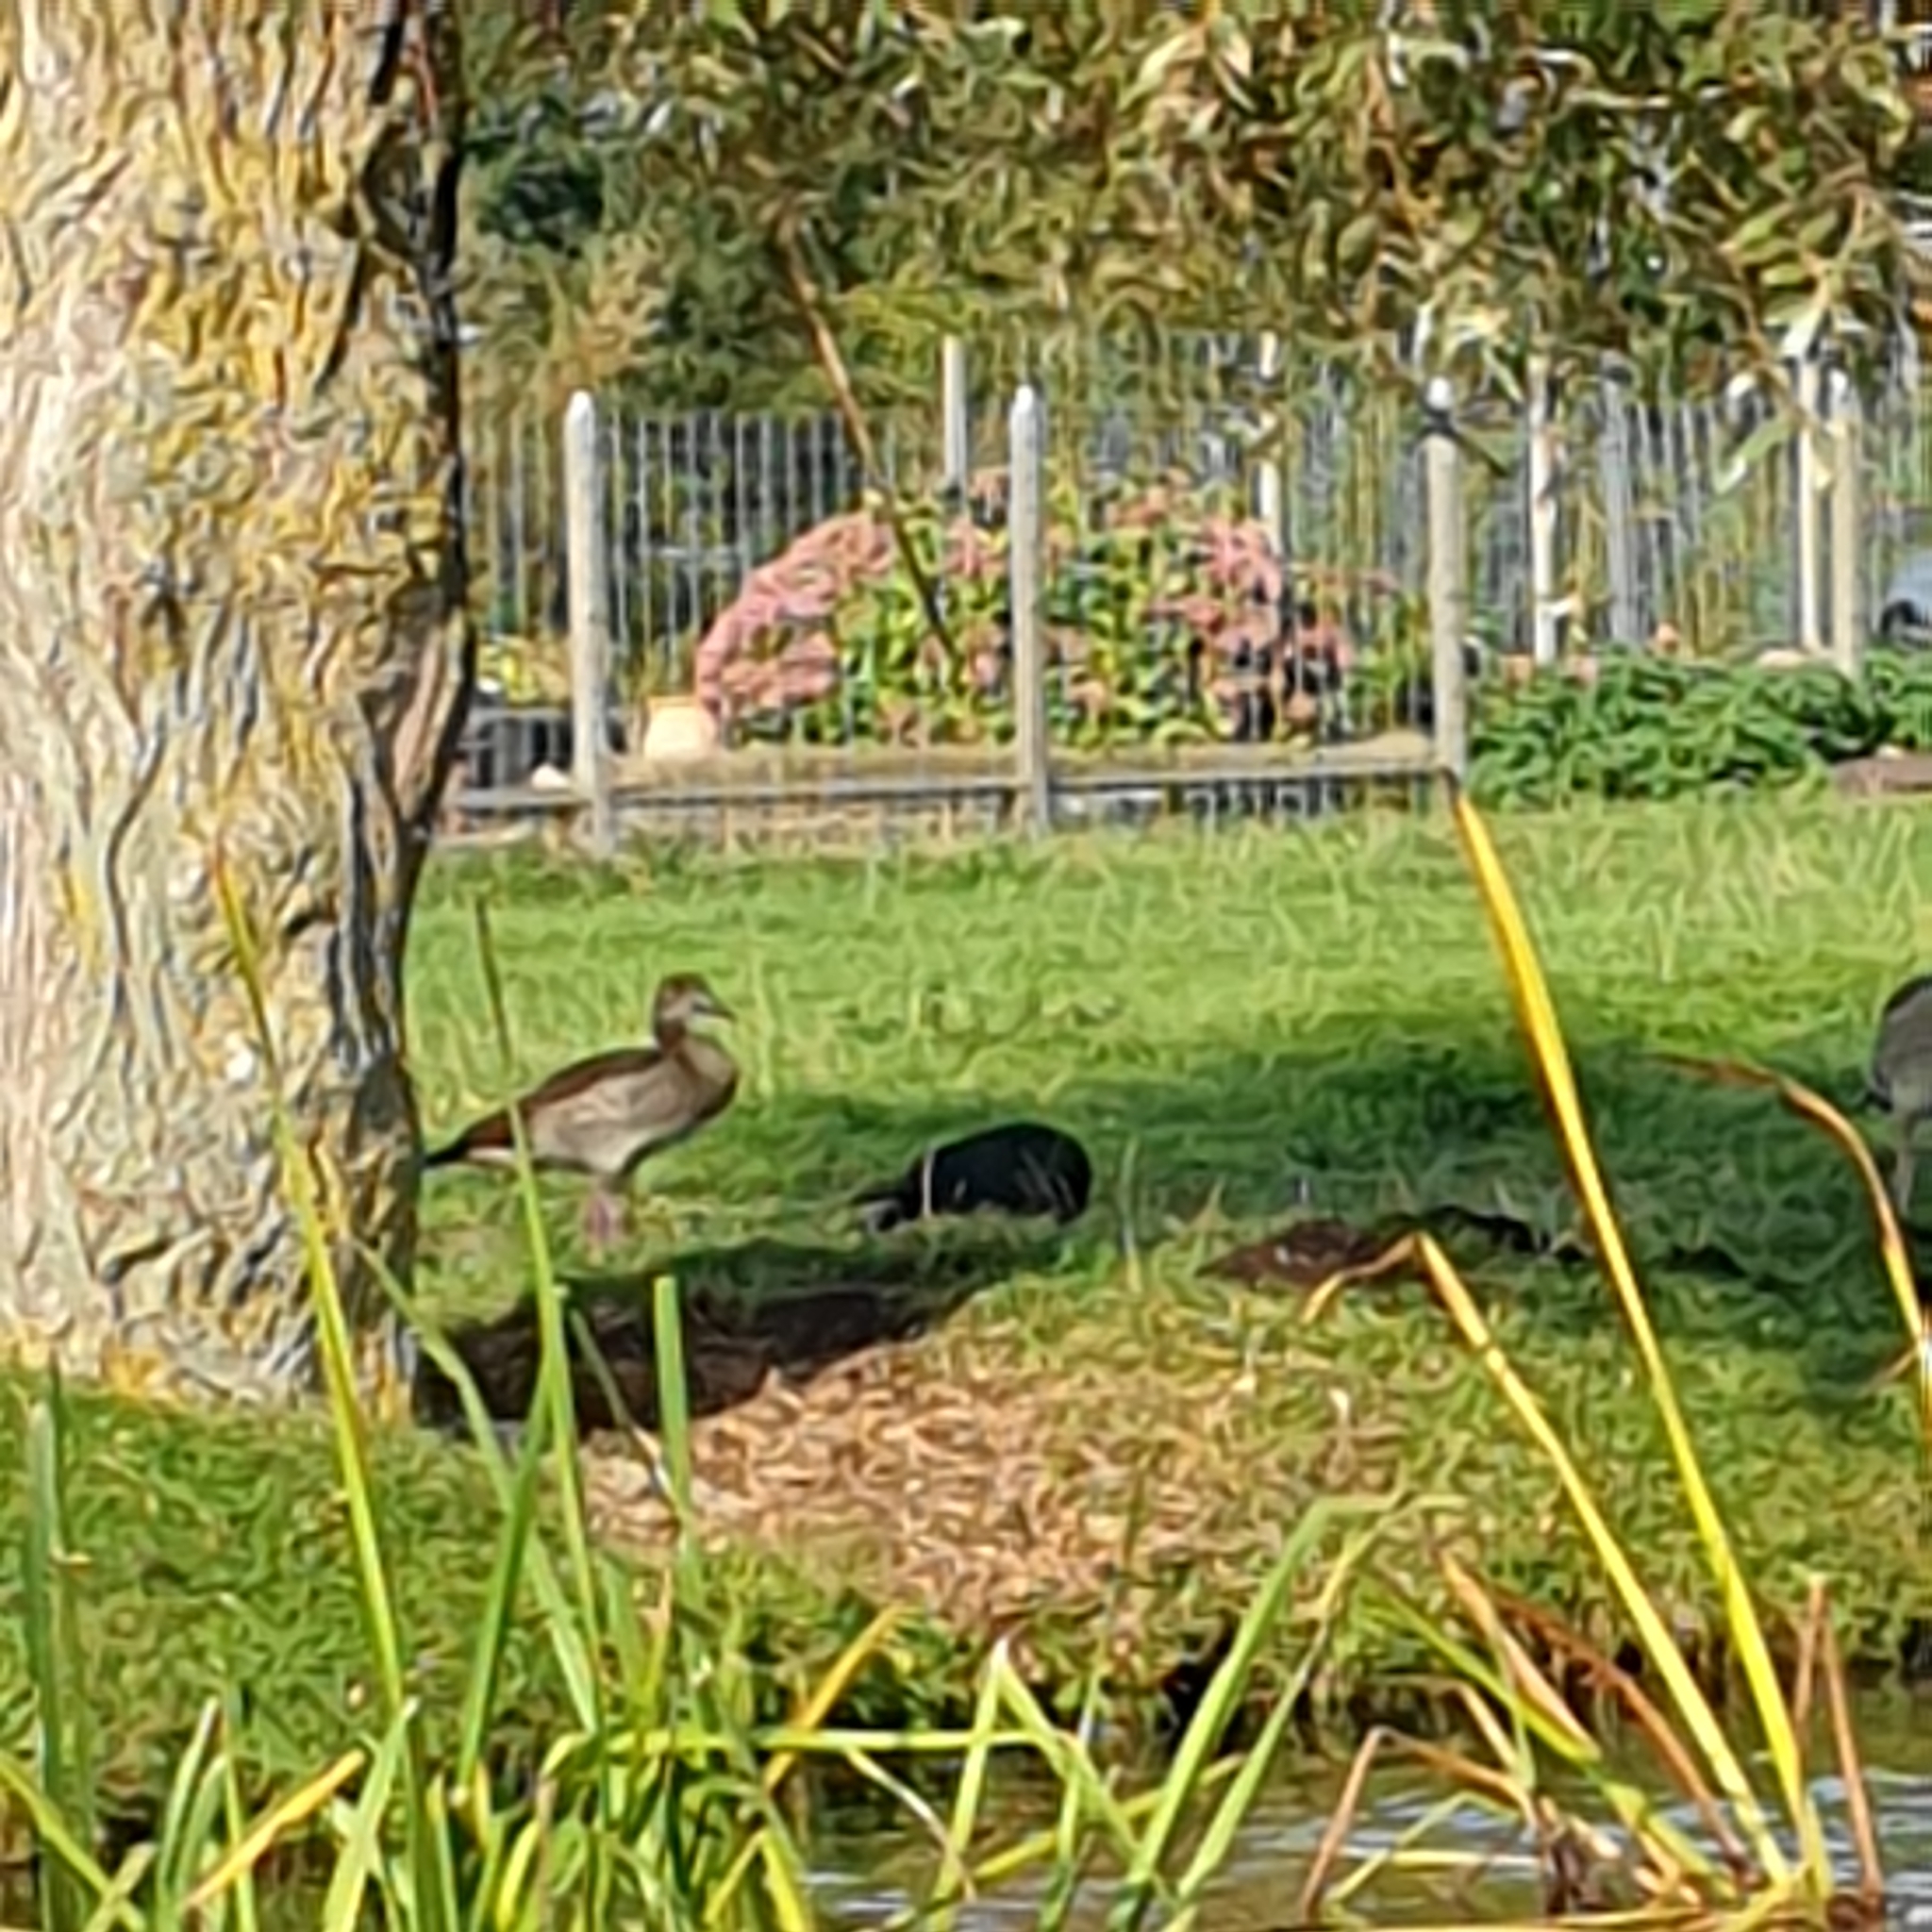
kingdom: Animalia
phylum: Chordata
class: Aves
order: Anseriformes
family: Anatidae
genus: Alopochen
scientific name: Alopochen aegyptiaca
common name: Egyptian goose
